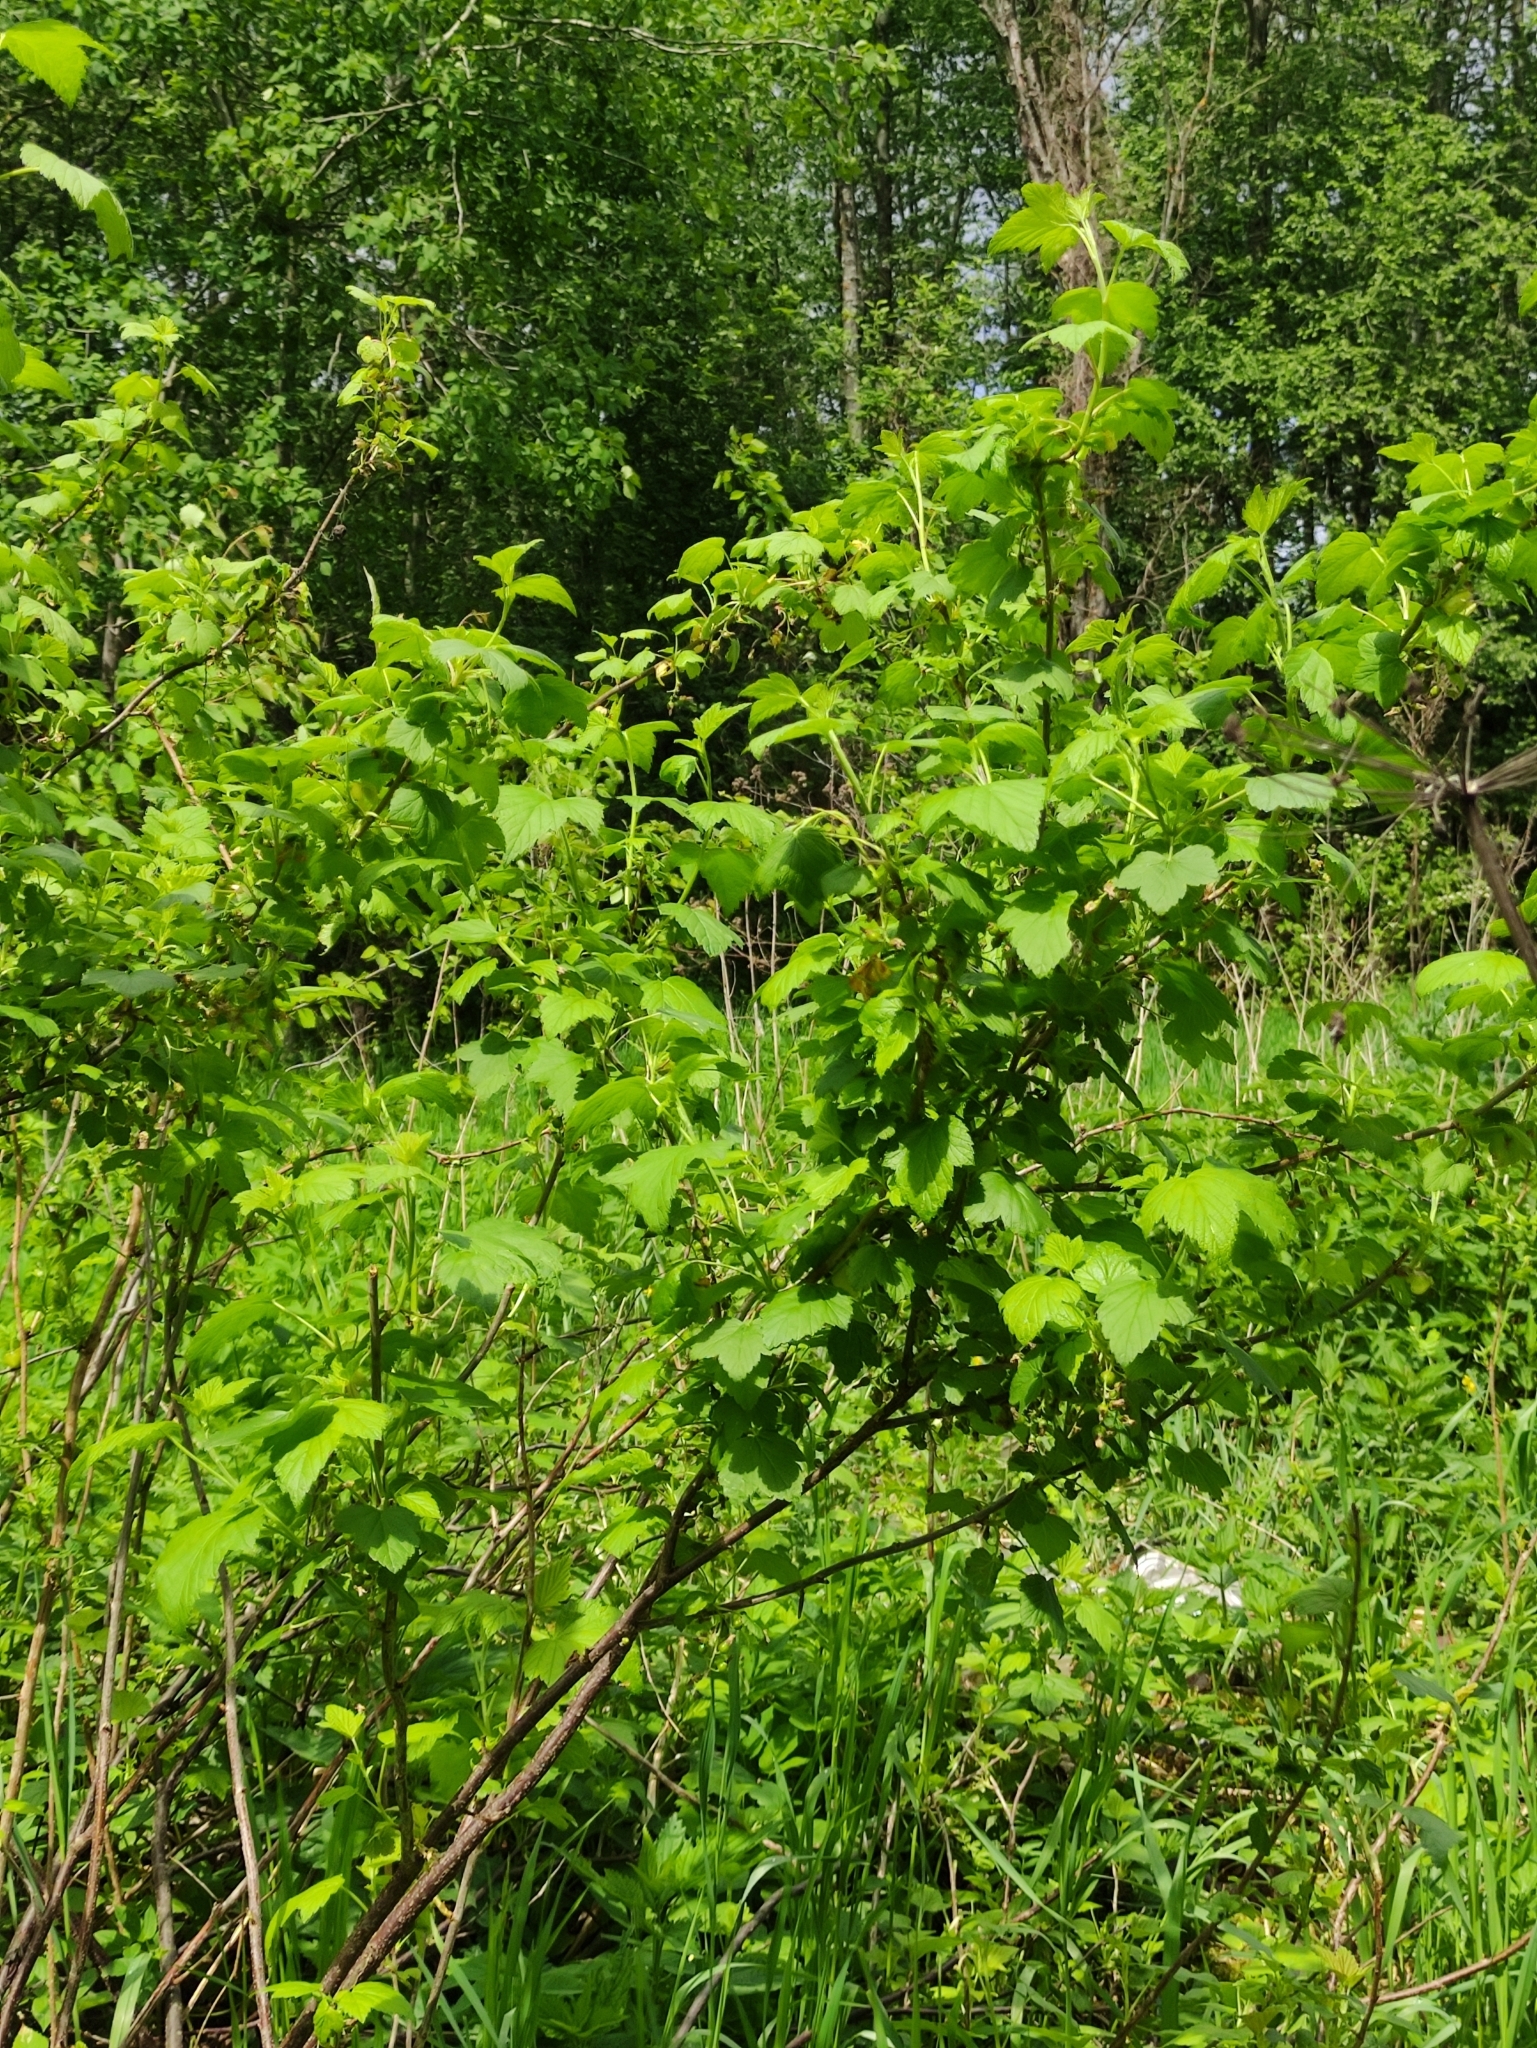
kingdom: Plantae
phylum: Tracheophyta
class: Magnoliopsida
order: Saxifragales
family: Grossulariaceae
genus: Ribes
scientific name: Ribes nigrum
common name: Black currant
